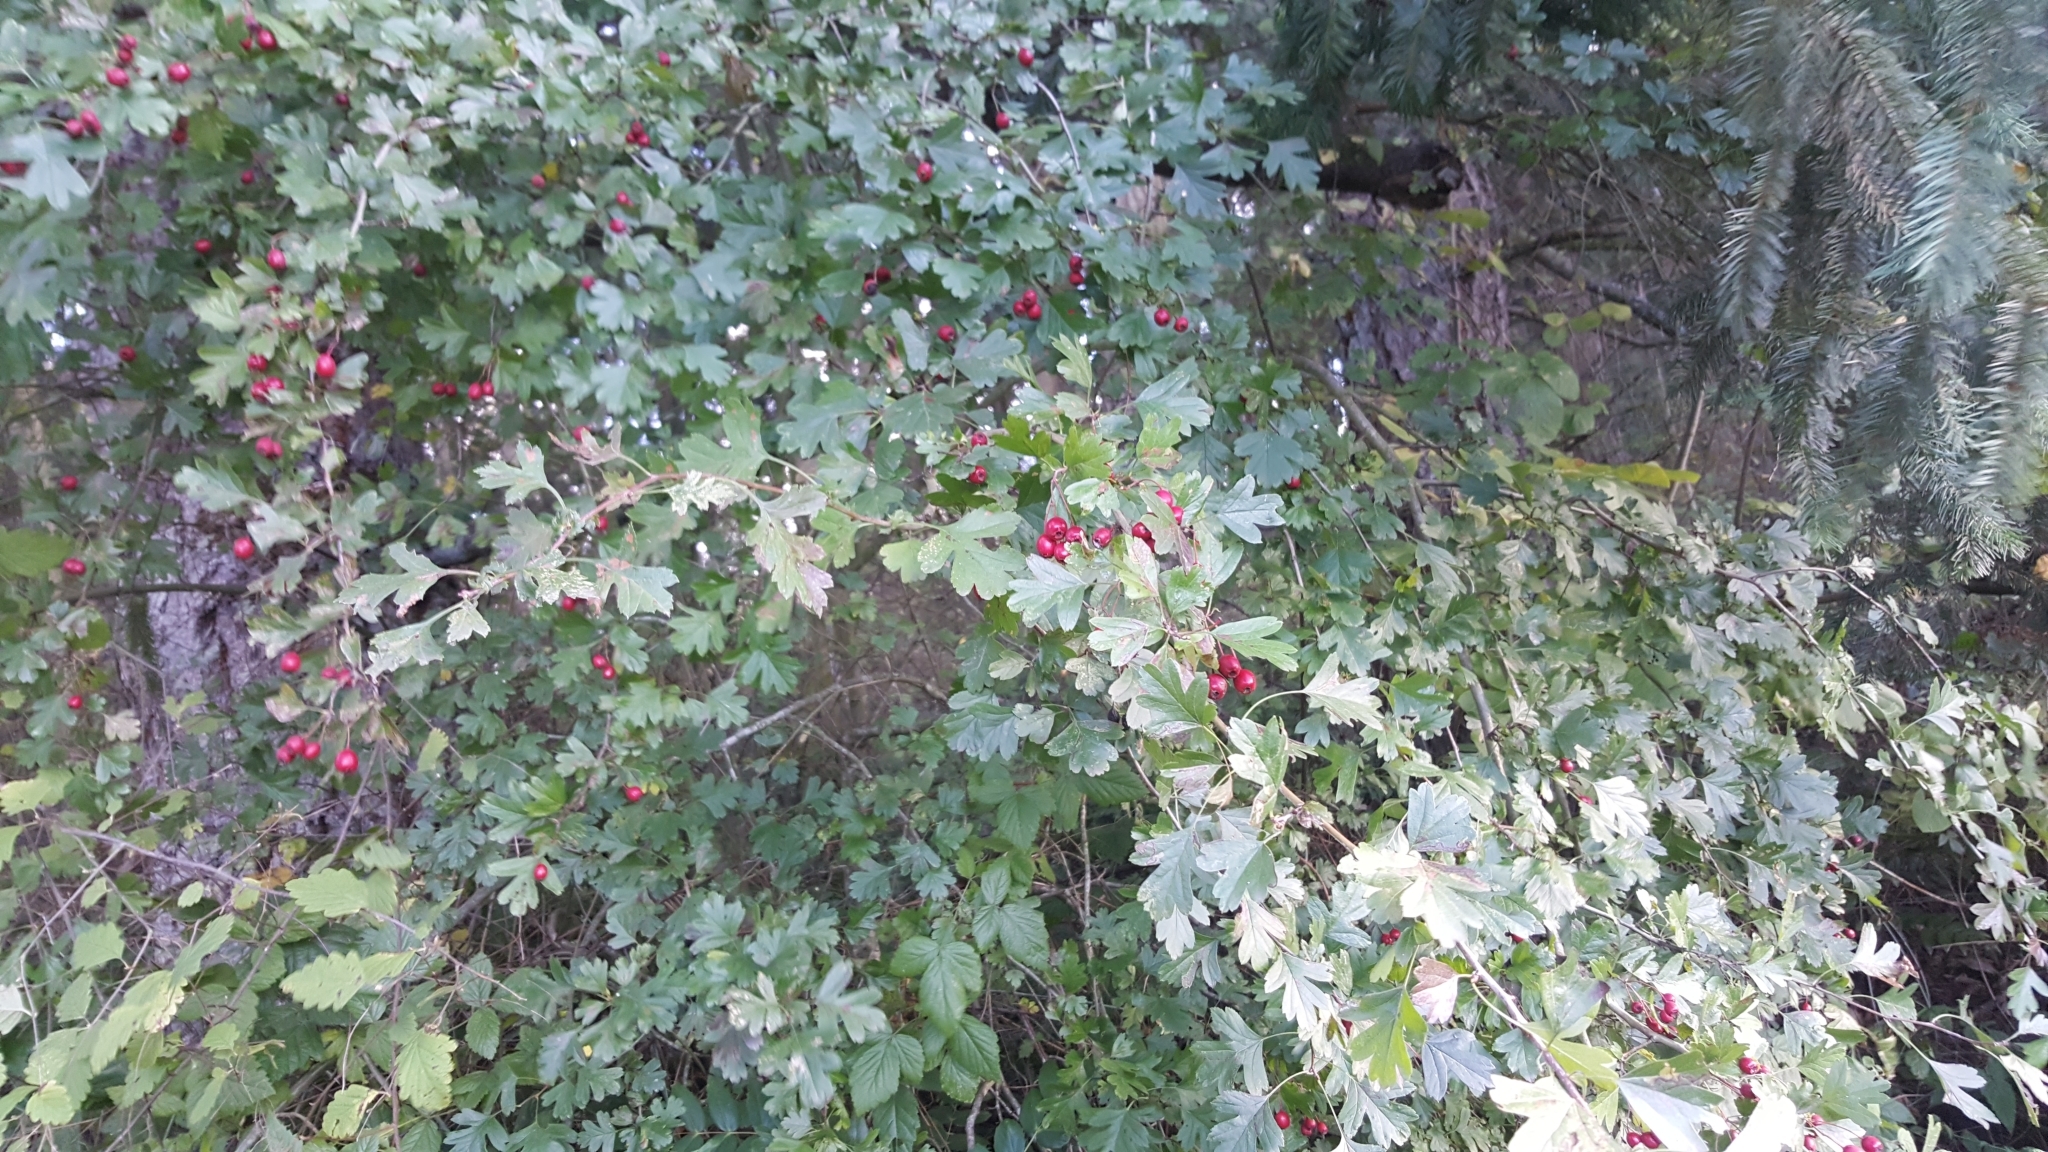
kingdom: Plantae
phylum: Tracheophyta
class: Magnoliopsida
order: Rosales
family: Rosaceae
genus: Crataegus
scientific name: Crataegus monogyna
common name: Hawthorn
